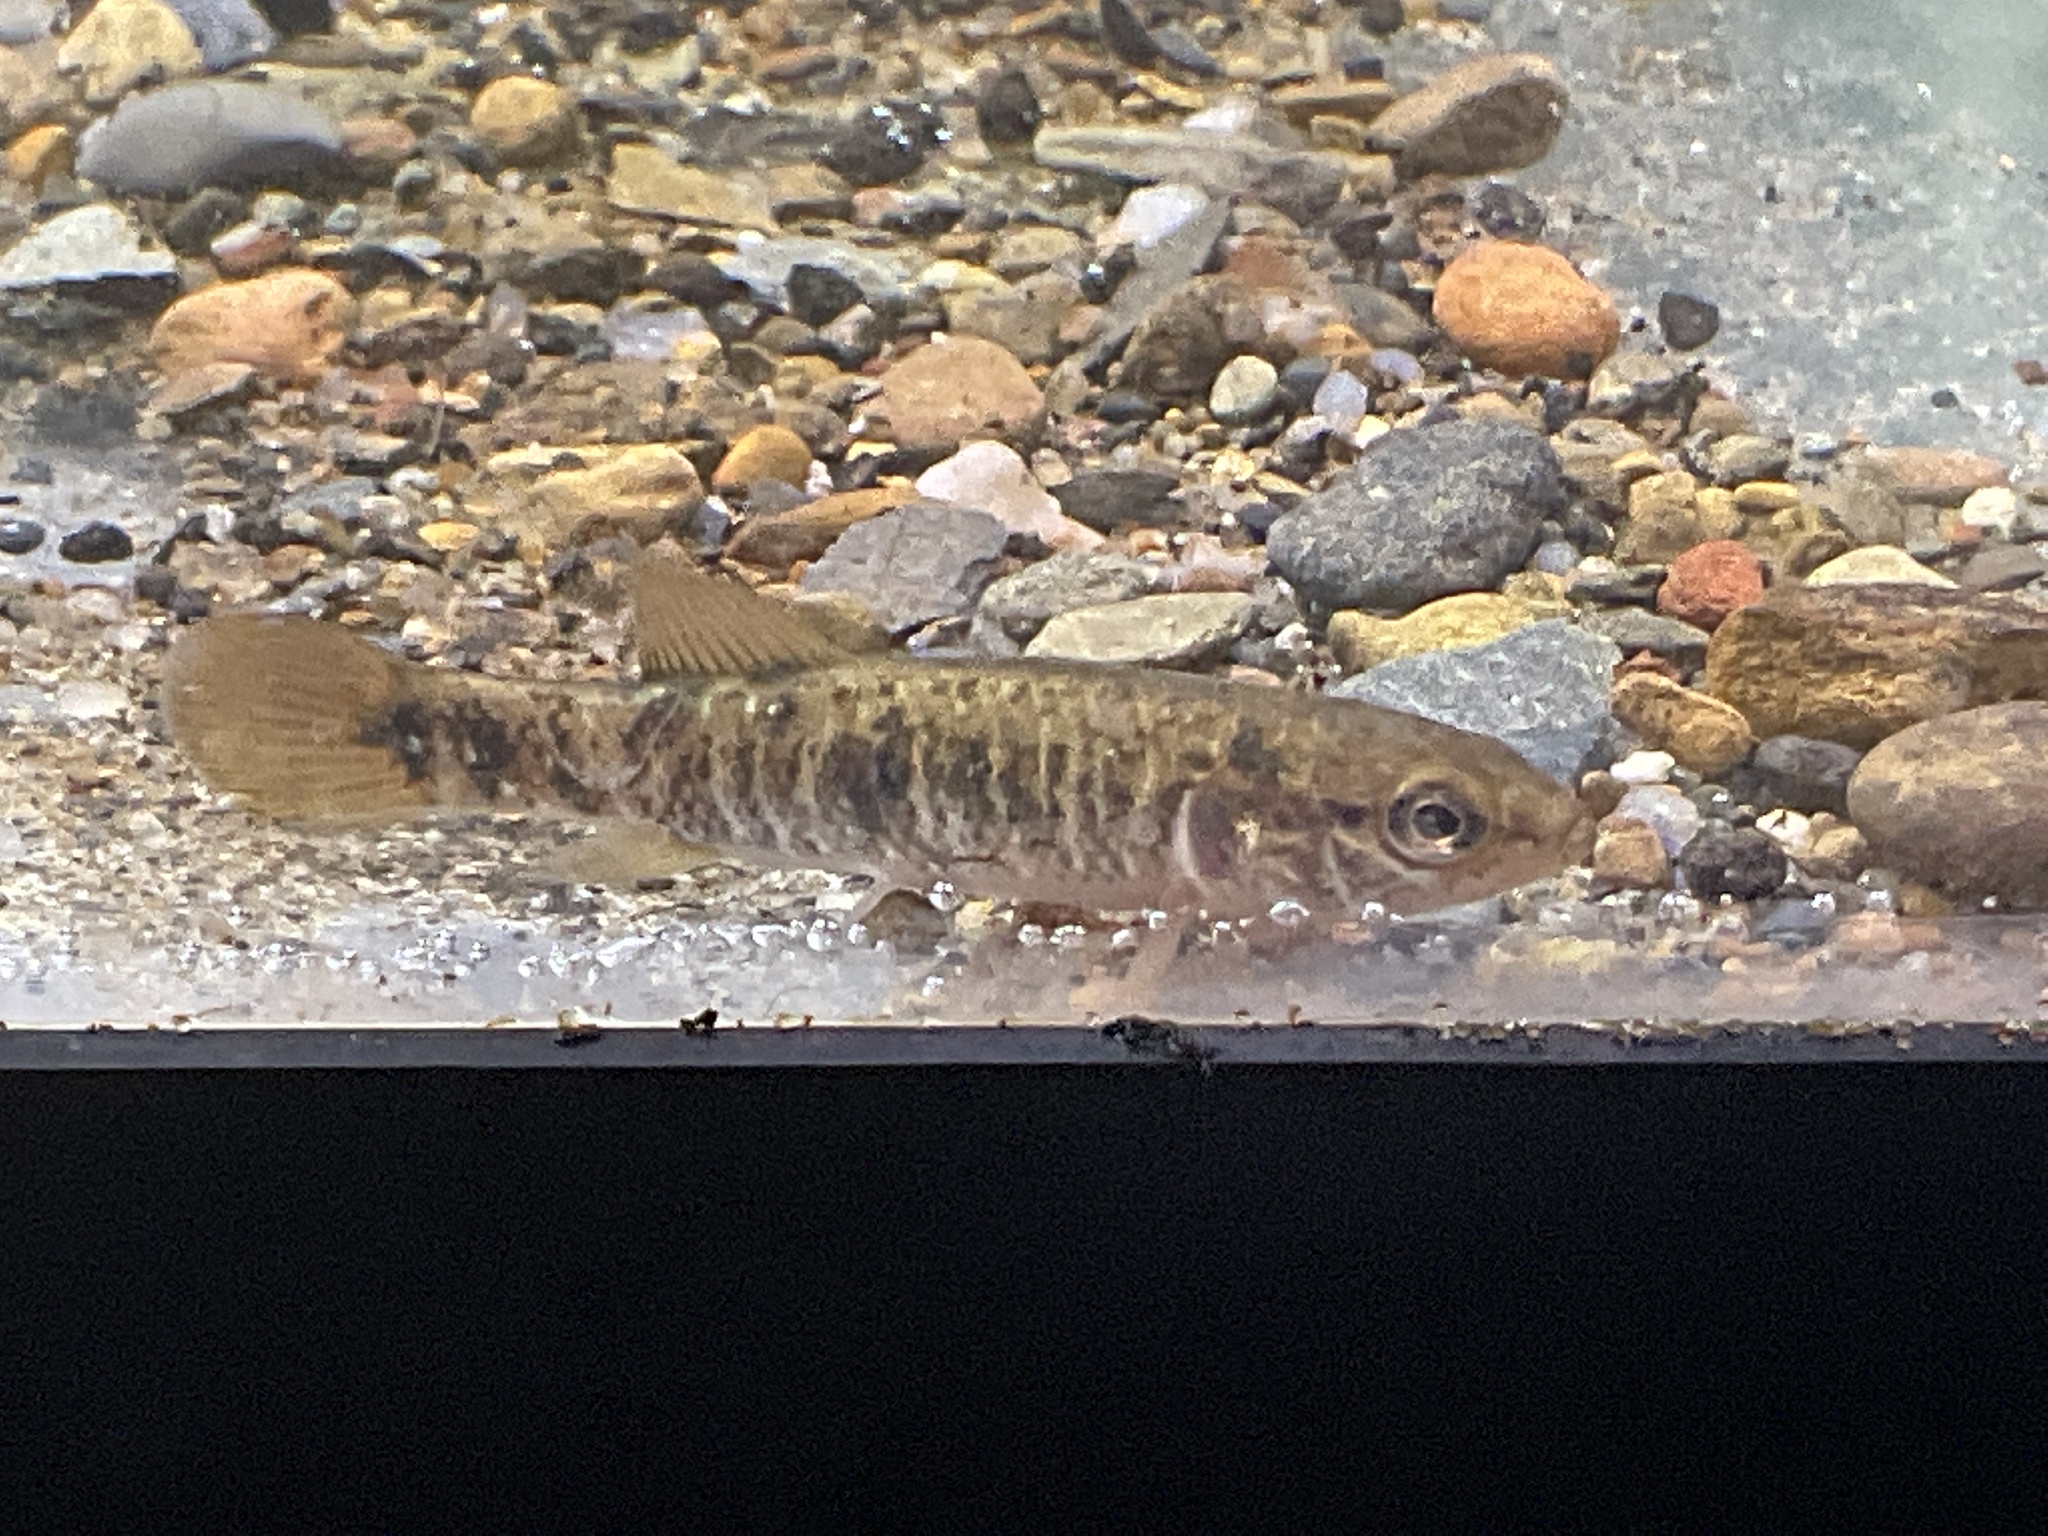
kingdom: Animalia
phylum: Chordata
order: Esociformes
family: Umbridae
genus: Umbra
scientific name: Umbra limi
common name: Central mudminnow
